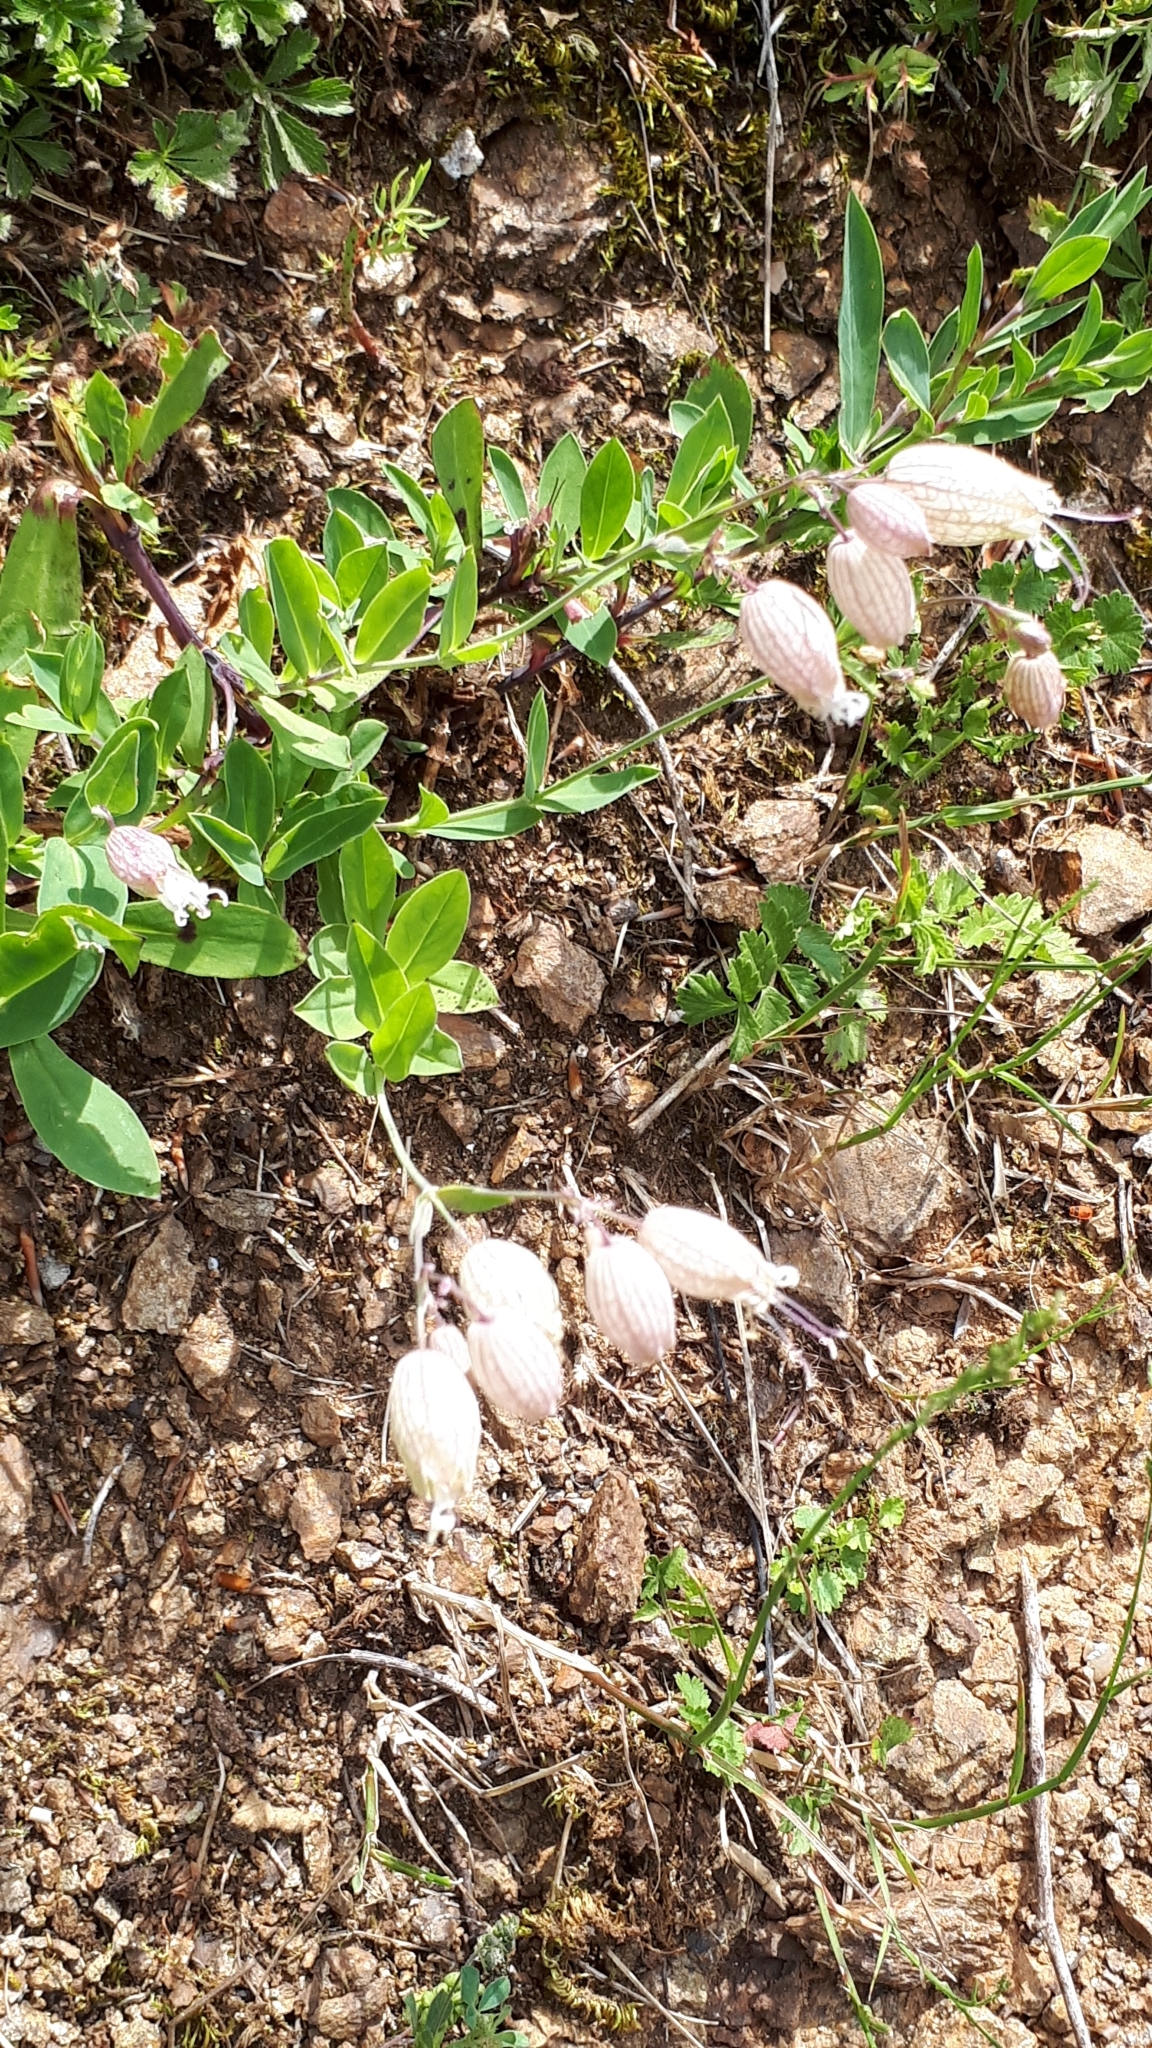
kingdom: Plantae
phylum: Tracheophyta
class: Magnoliopsida
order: Caryophyllales
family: Caryophyllaceae
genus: Silene
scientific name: Silene vulgaris
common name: Bladder campion
